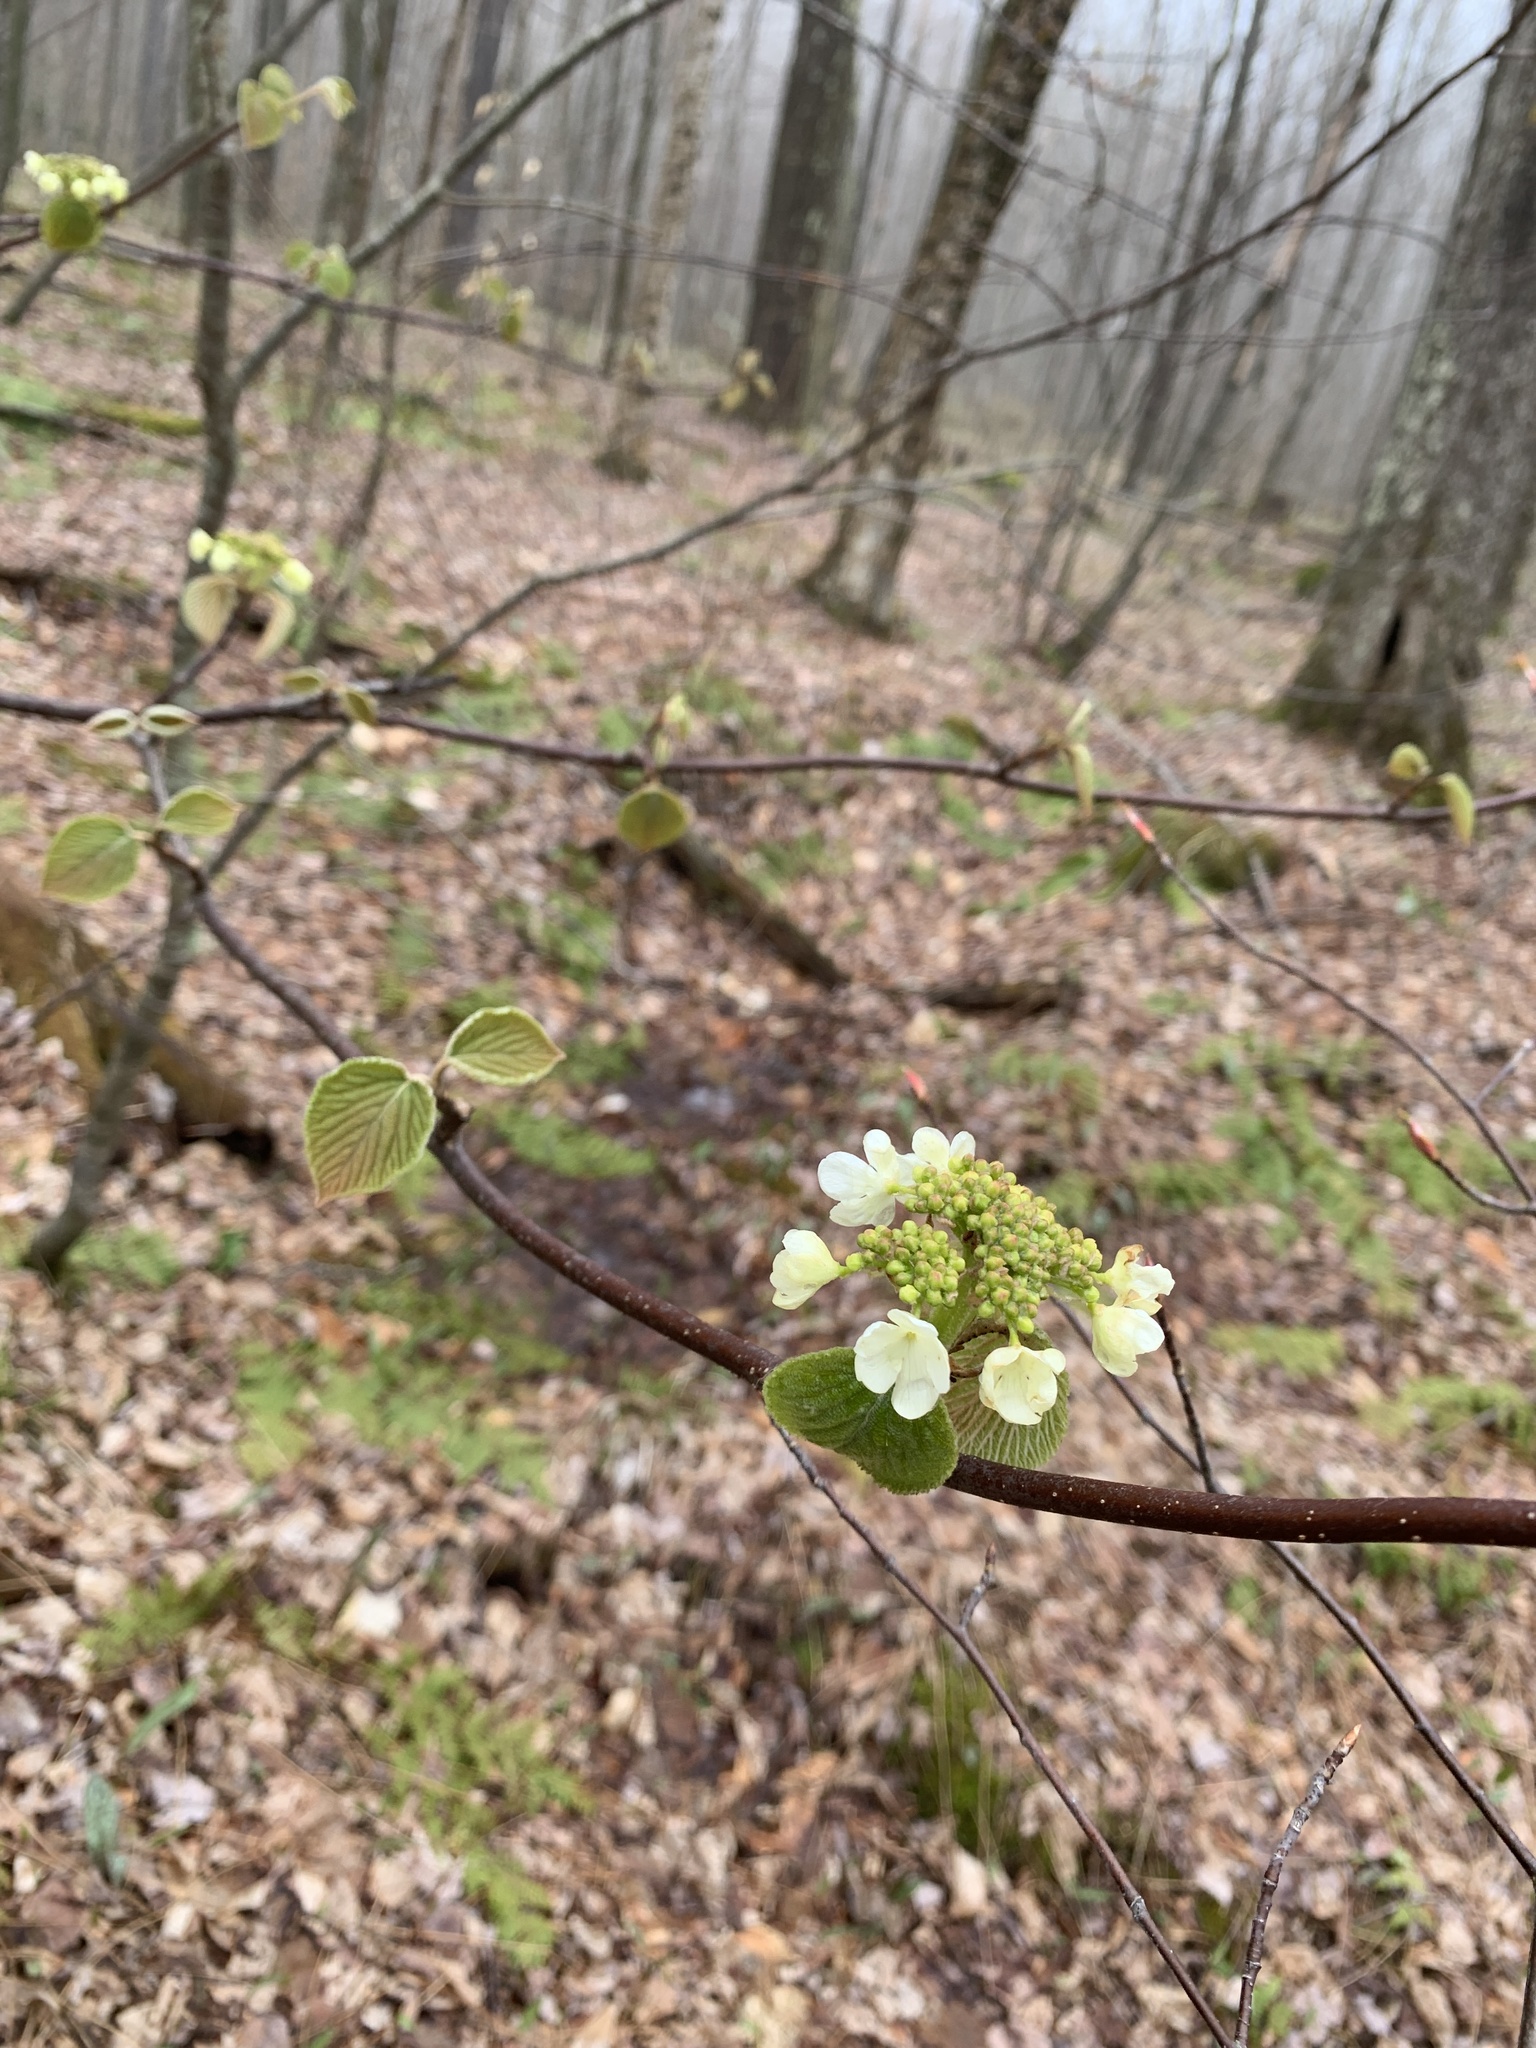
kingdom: Plantae
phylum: Tracheophyta
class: Magnoliopsida
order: Dipsacales
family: Viburnaceae
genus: Viburnum
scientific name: Viburnum lantanoides
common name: Hobblebush
